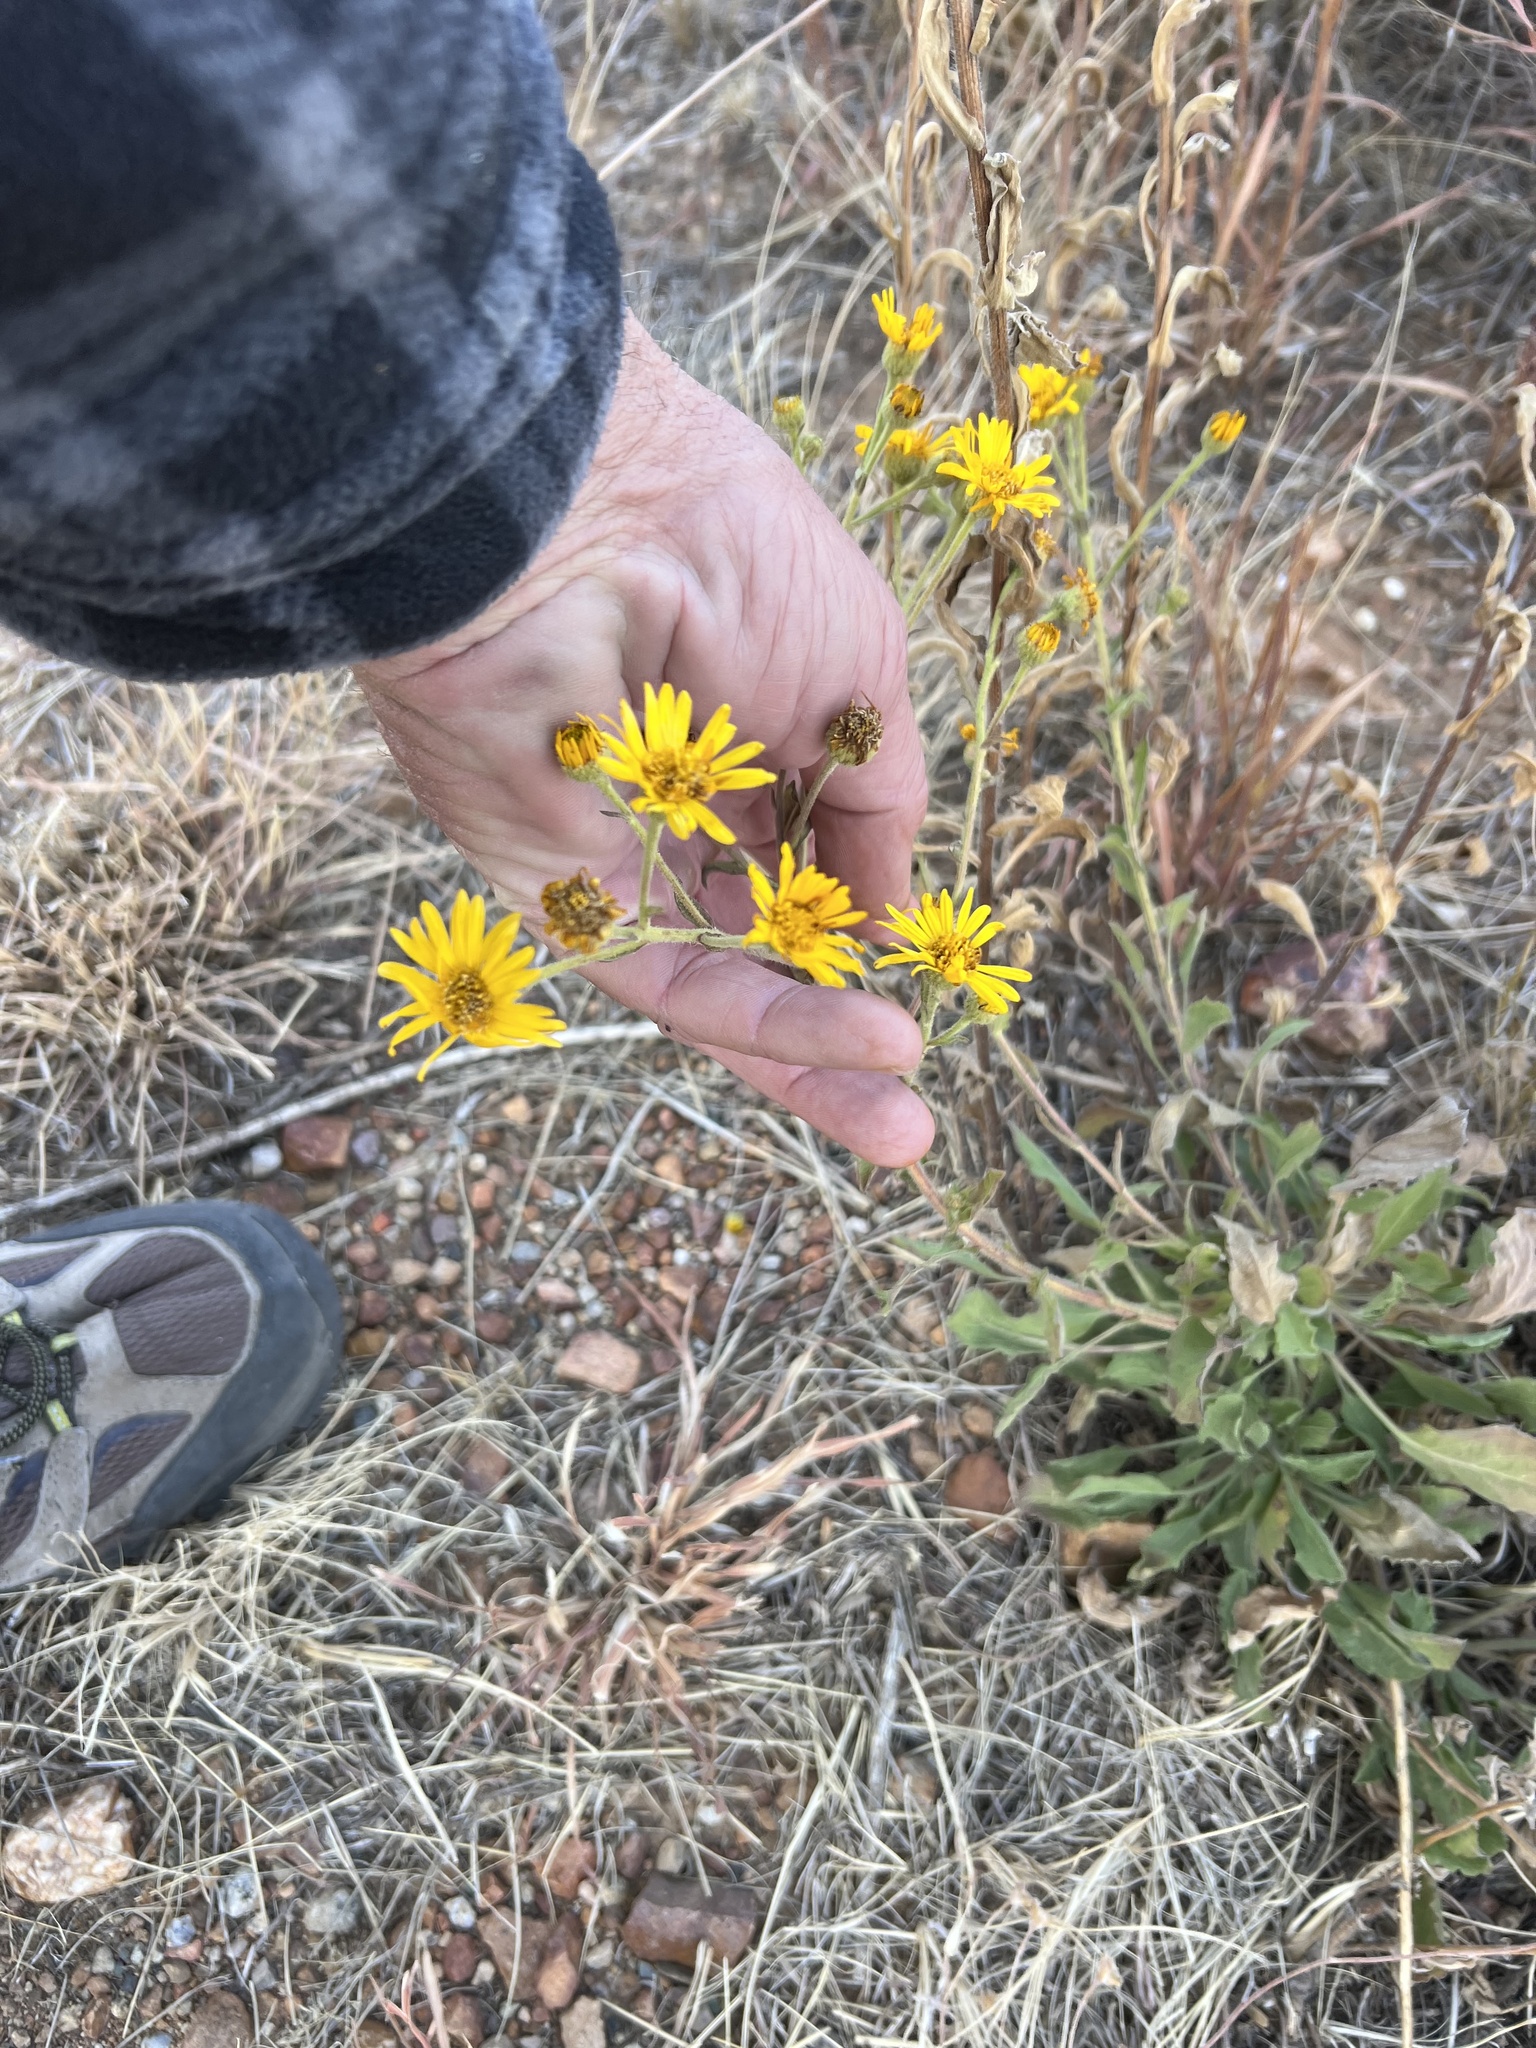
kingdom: Plantae
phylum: Tracheophyta
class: Magnoliopsida
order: Asterales
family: Asteraceae
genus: Heterotheca
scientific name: Heterotheca grandiflora
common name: Telegraphweed
